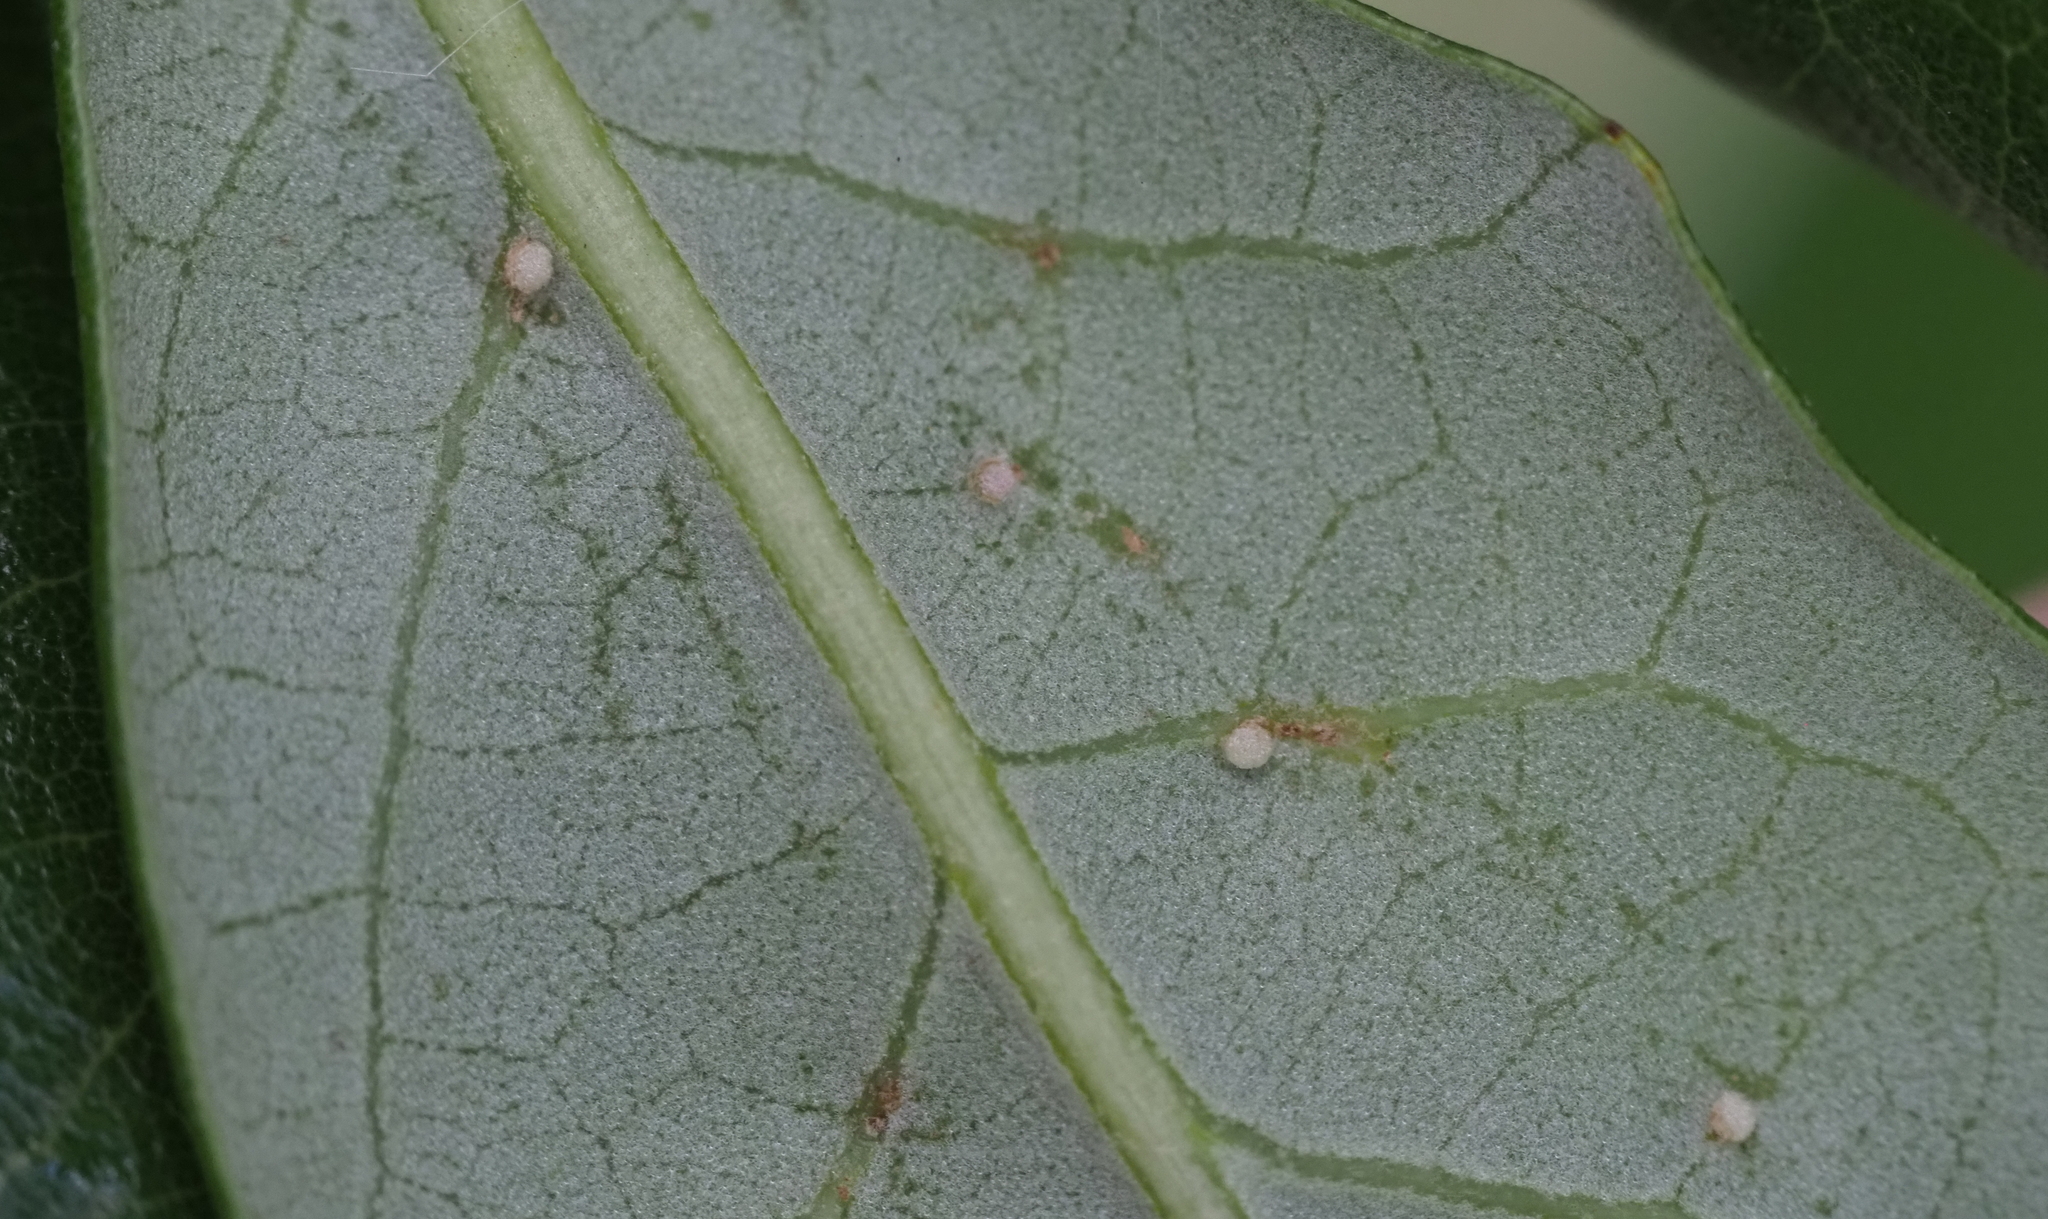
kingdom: Animalia
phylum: Arthropoda
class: Insecta
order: Hymenoptera
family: Cynipidae
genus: Belonocnema
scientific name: Belonocnema kinseyi
